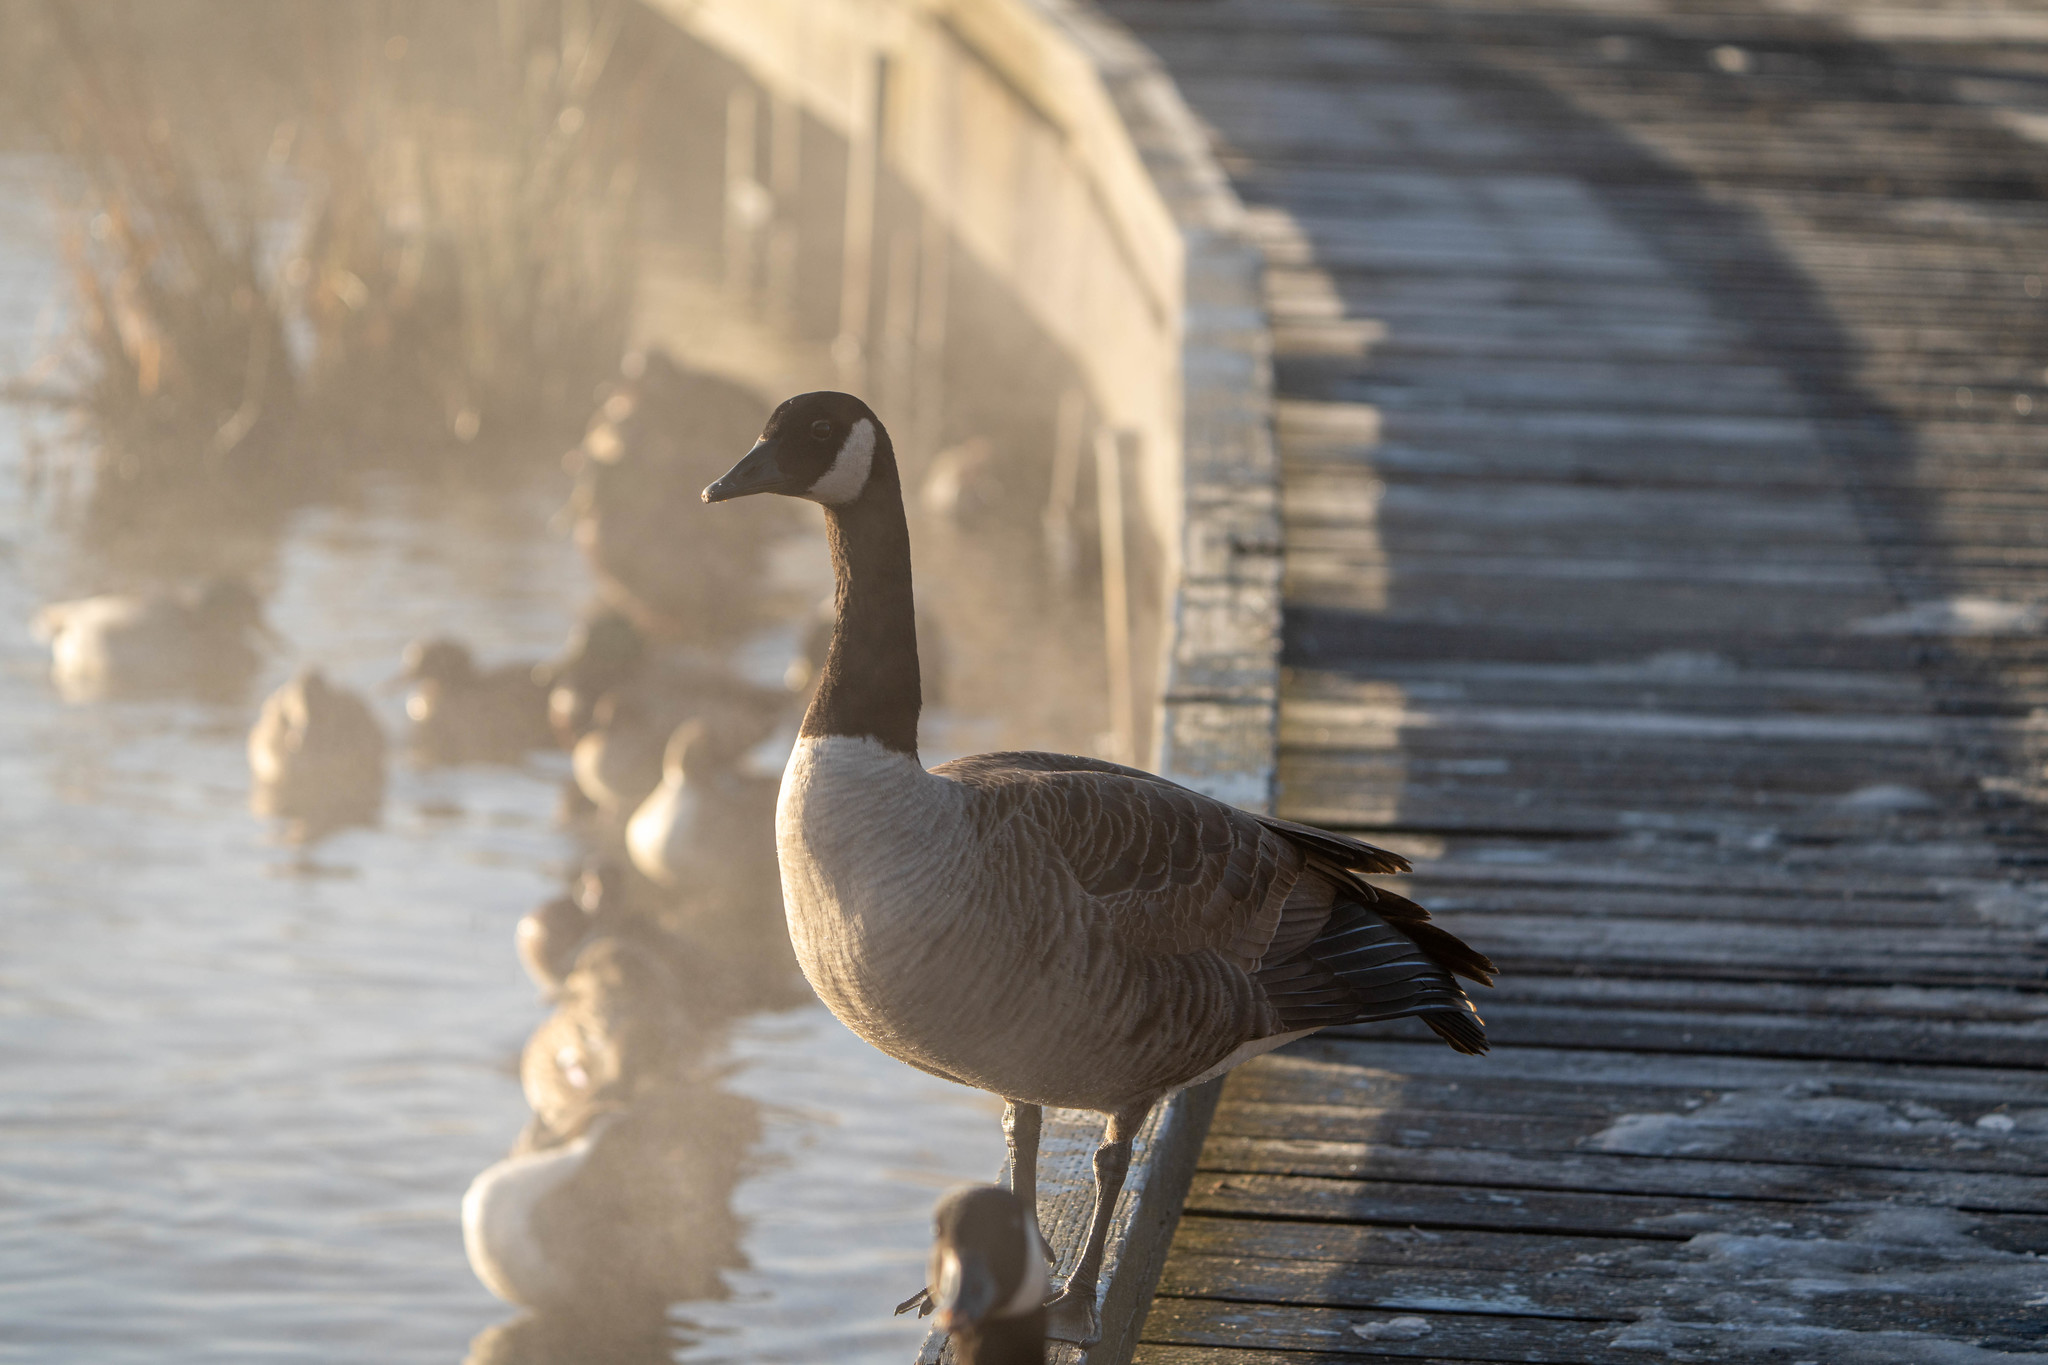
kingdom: Animalia
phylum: Chordata
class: Aves
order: Anseriformes
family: Anatidae
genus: Branta
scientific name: Branta canadensis
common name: Canada goose
